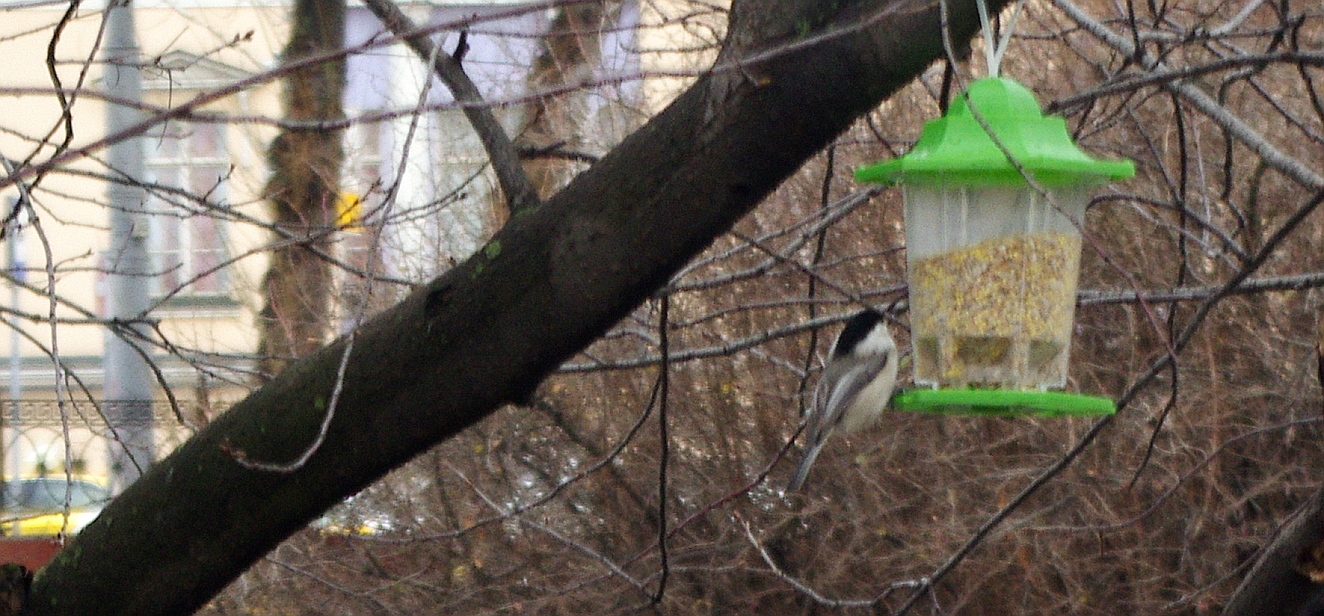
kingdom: Animalia
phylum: Chordata
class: Aves
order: Passeriformes
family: Paridae
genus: Poecile
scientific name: Poecile montanus
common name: Willow tit
